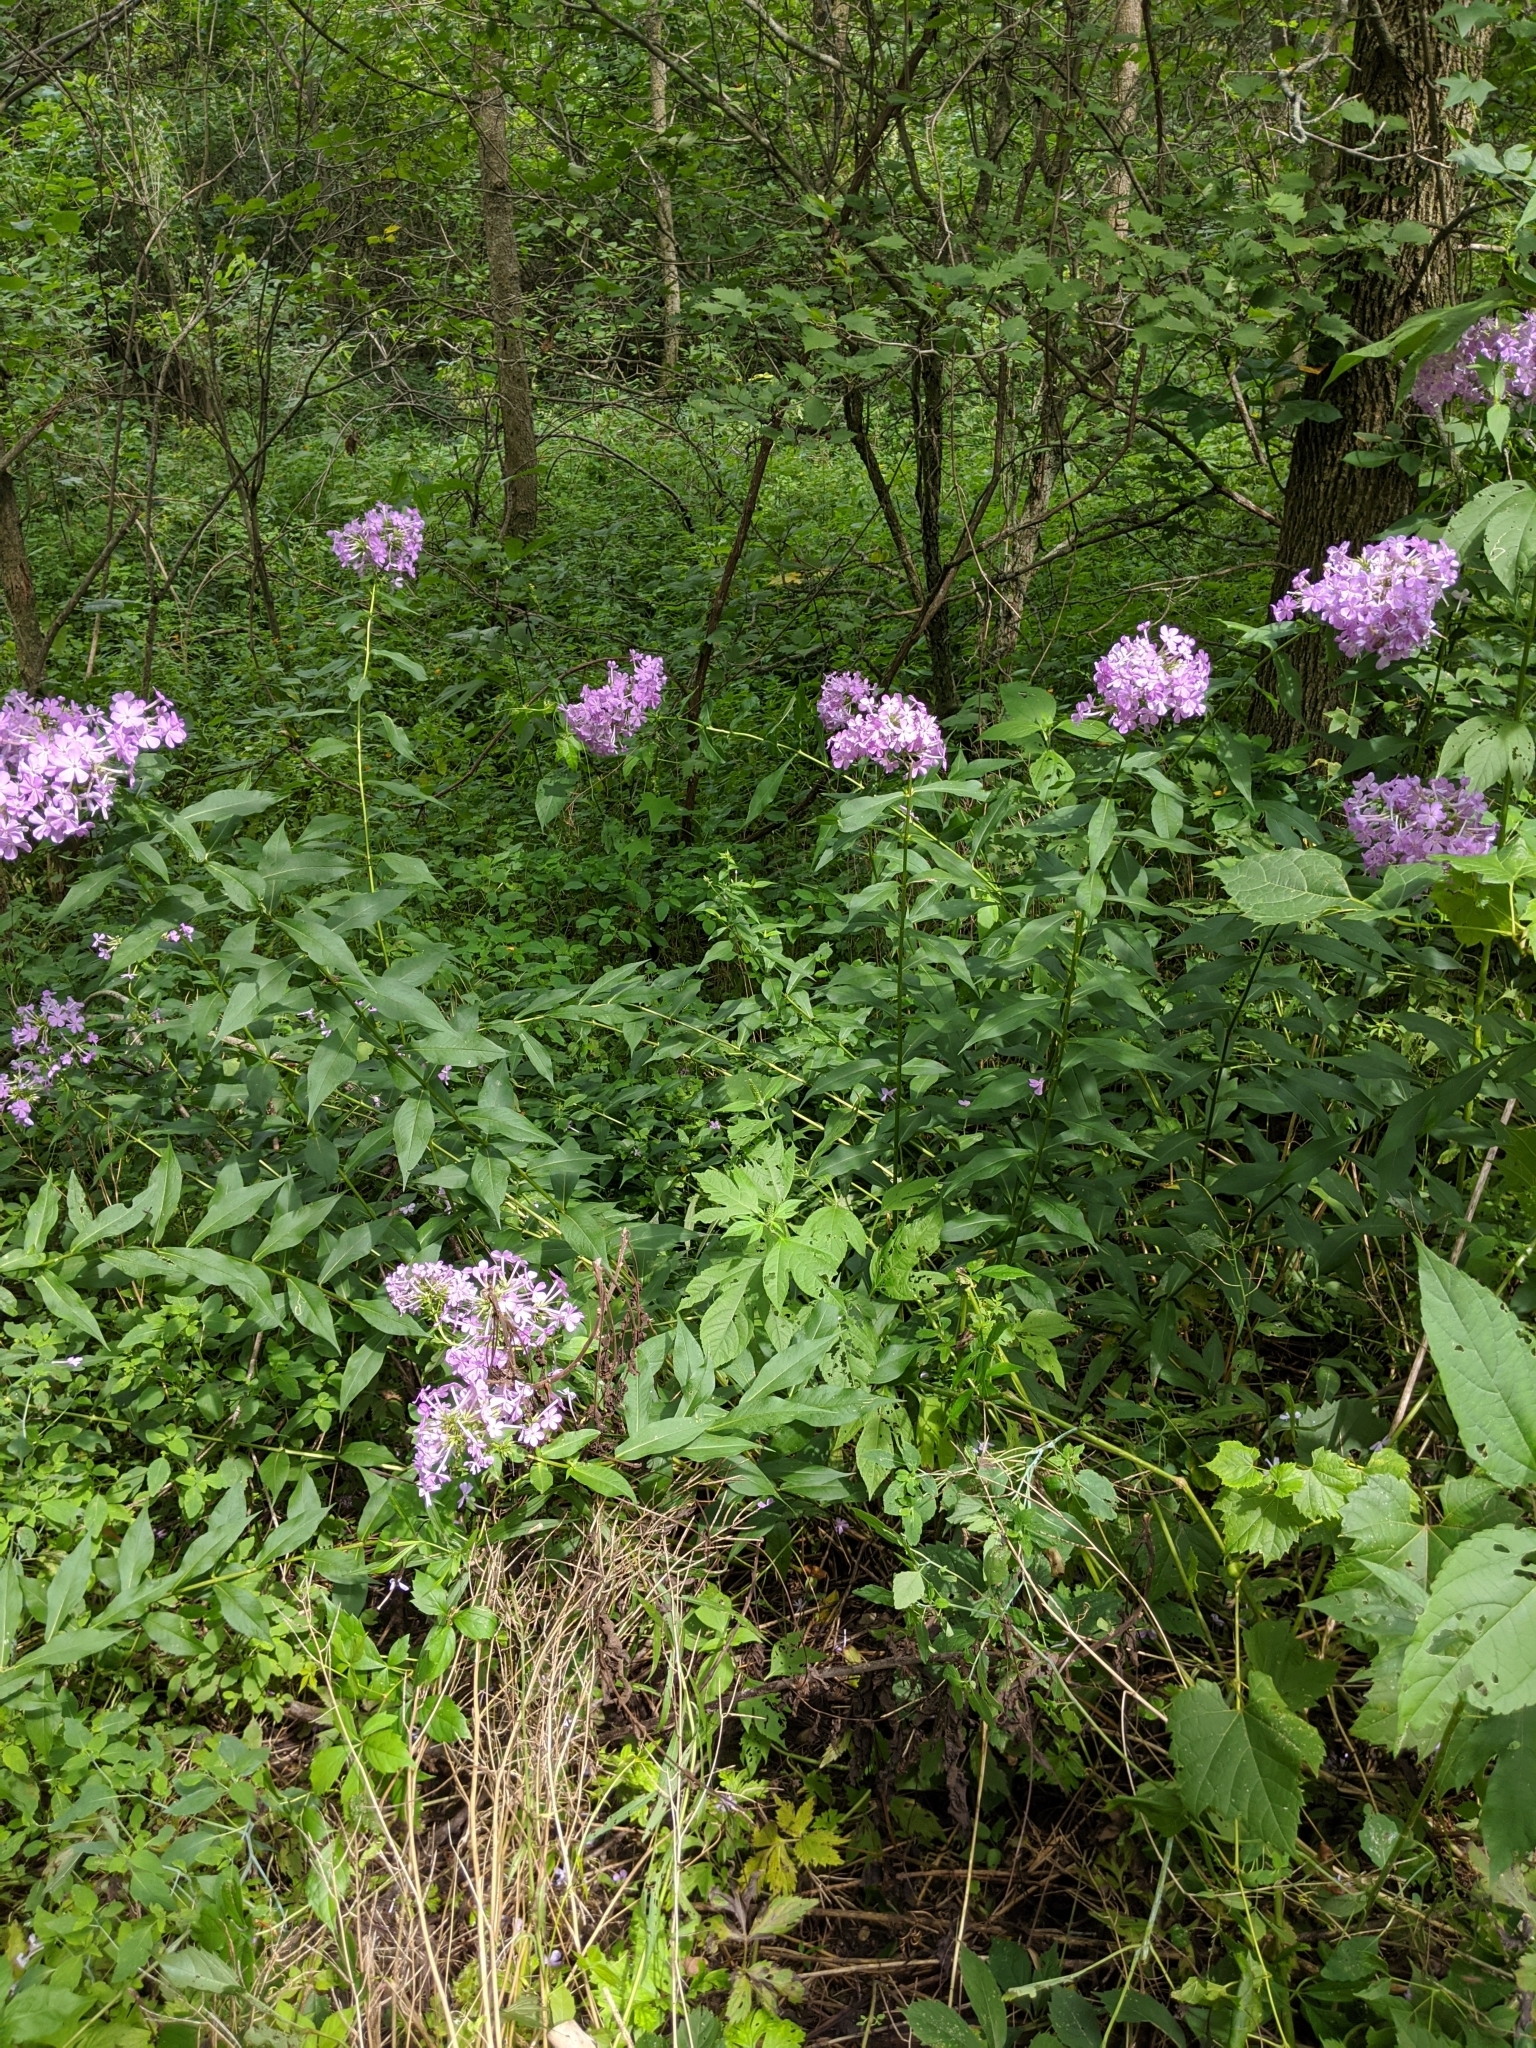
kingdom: Plantae
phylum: Tracheophyta
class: Magnoliopsida
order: Ericales
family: Polemoniaceae
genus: Phlox
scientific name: Phlox paniculata
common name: Fall phlox
